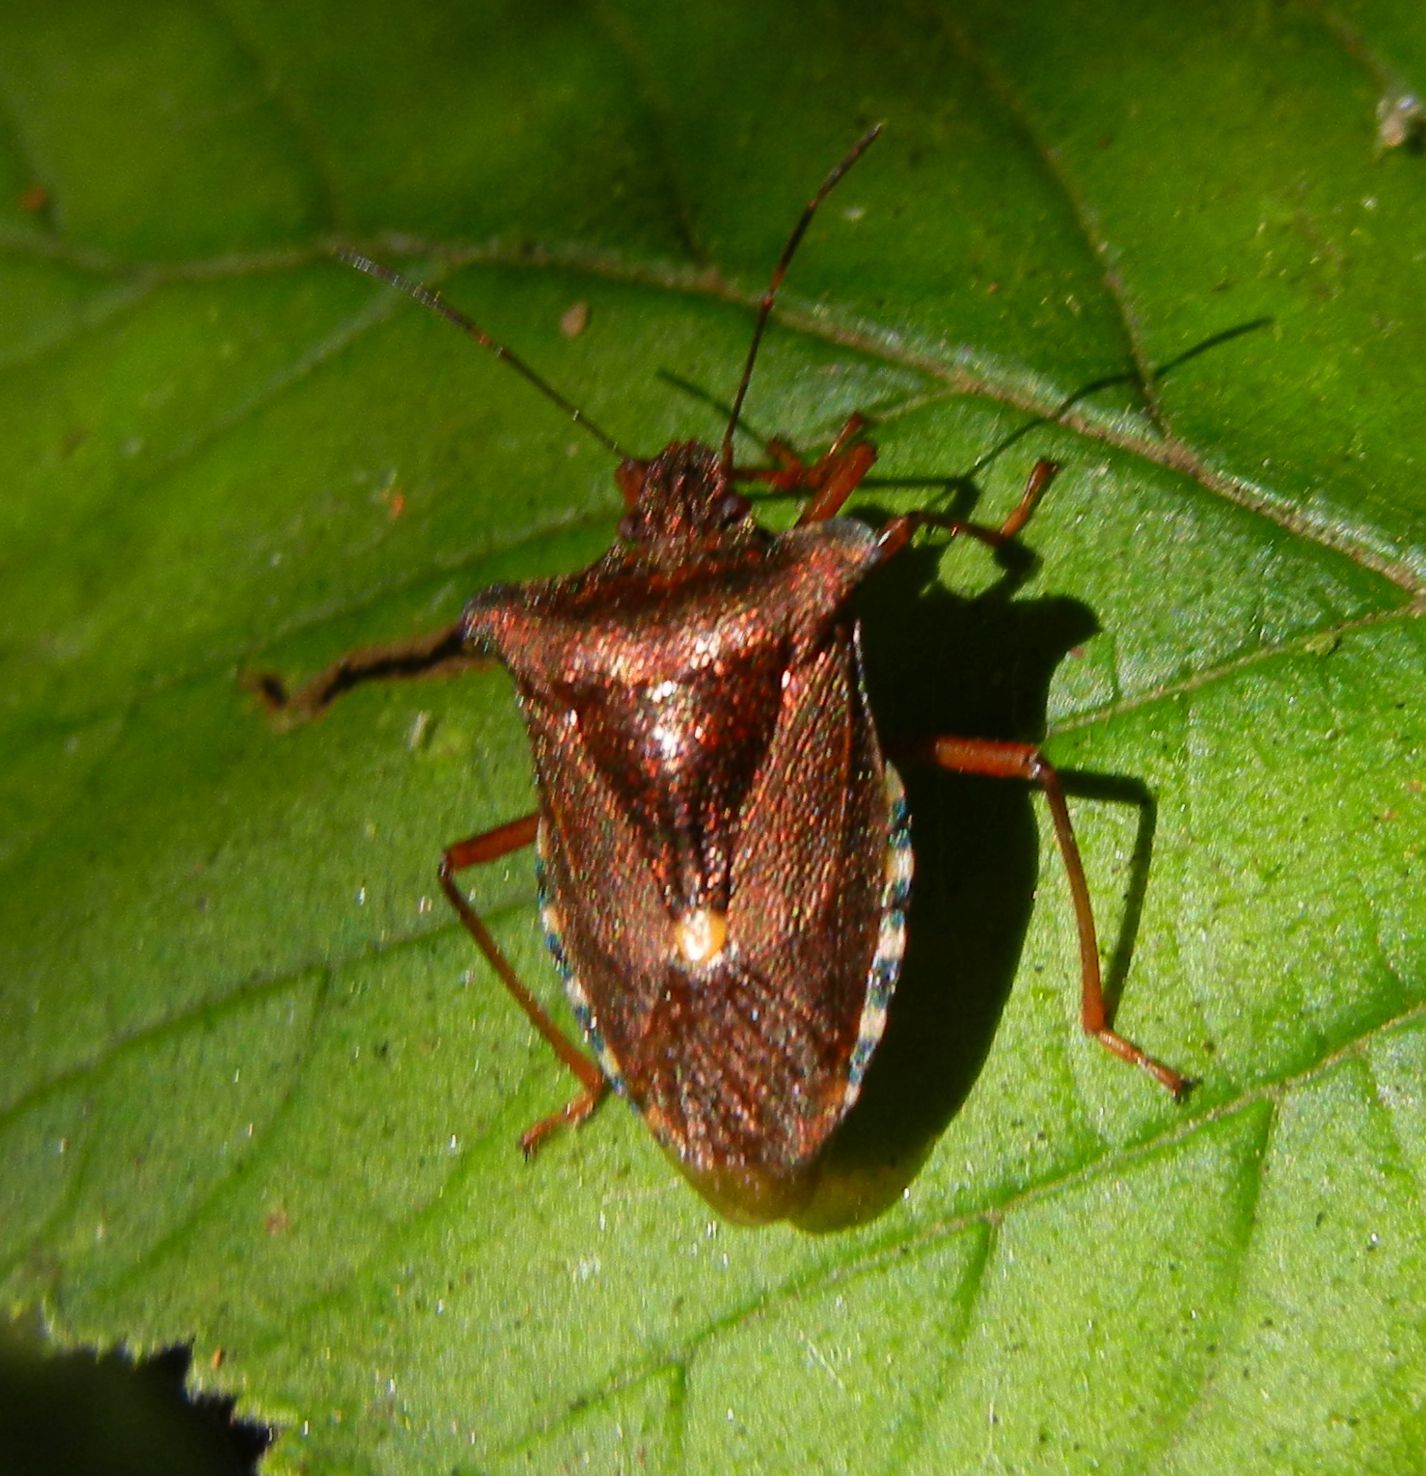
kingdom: Animalia
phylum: Arthropoda
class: Insecta
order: Hemiptera
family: Pentatomidae
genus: Pentatoma
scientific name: Pentatoma rufipes
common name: Forest bug
